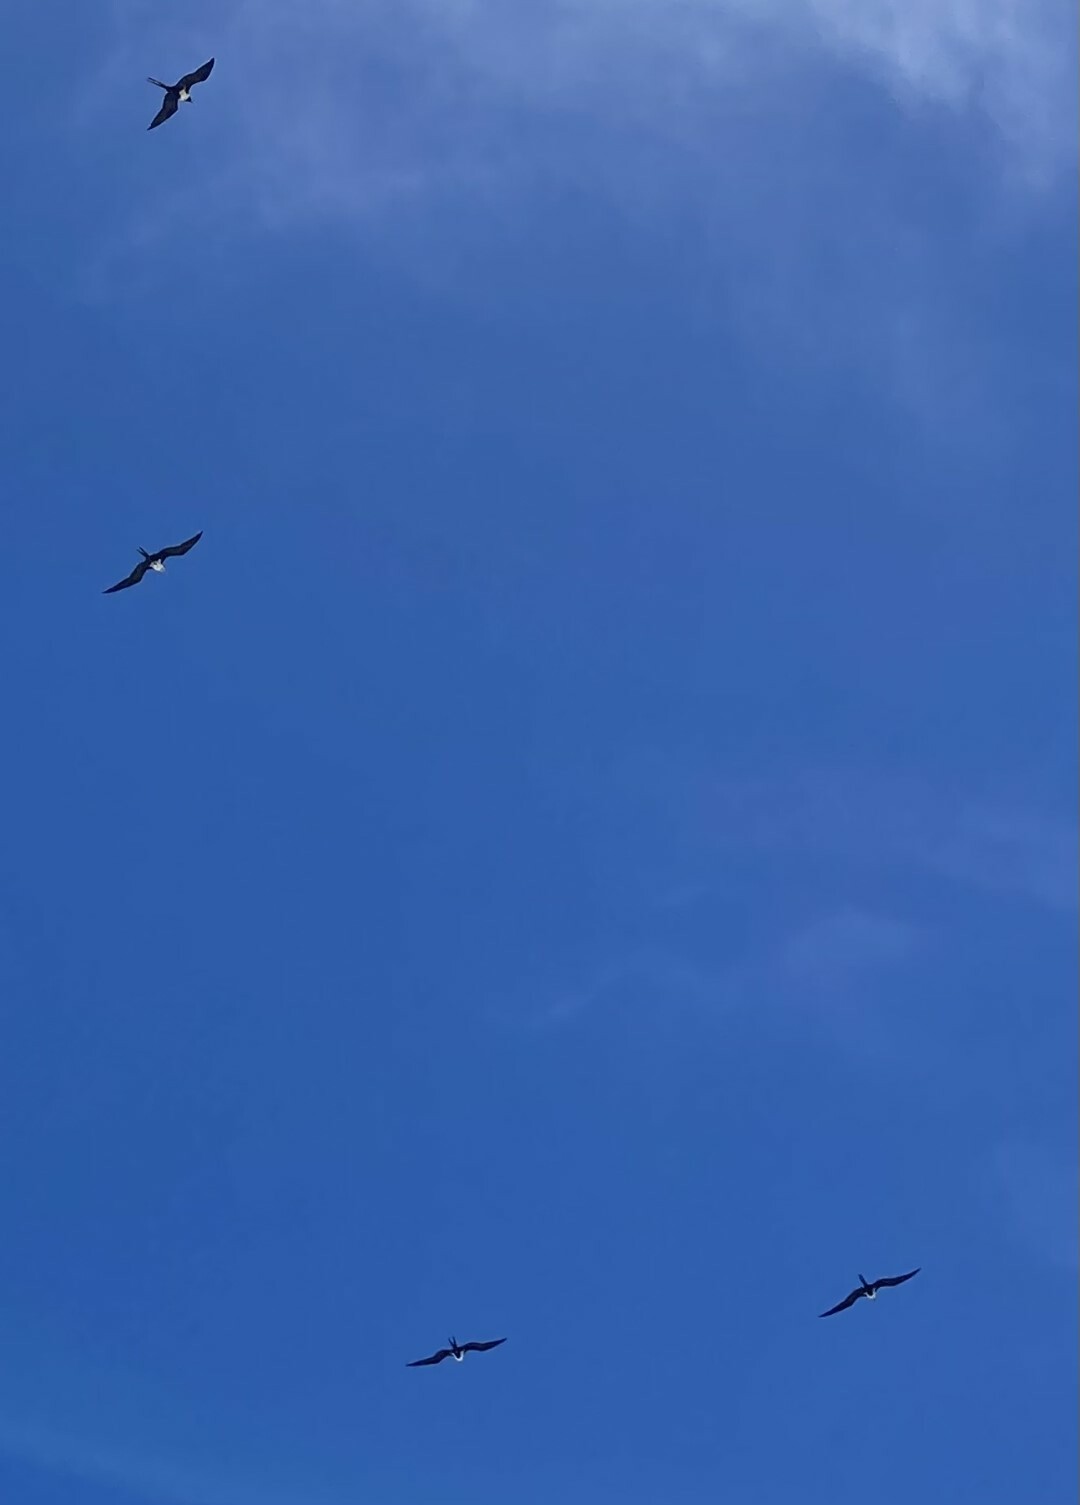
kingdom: Animalia
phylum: Chordata
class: Aves
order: Suliformes
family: Fregatidae
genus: Fregata
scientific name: Fregata ariel
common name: Lesser frigatebird
